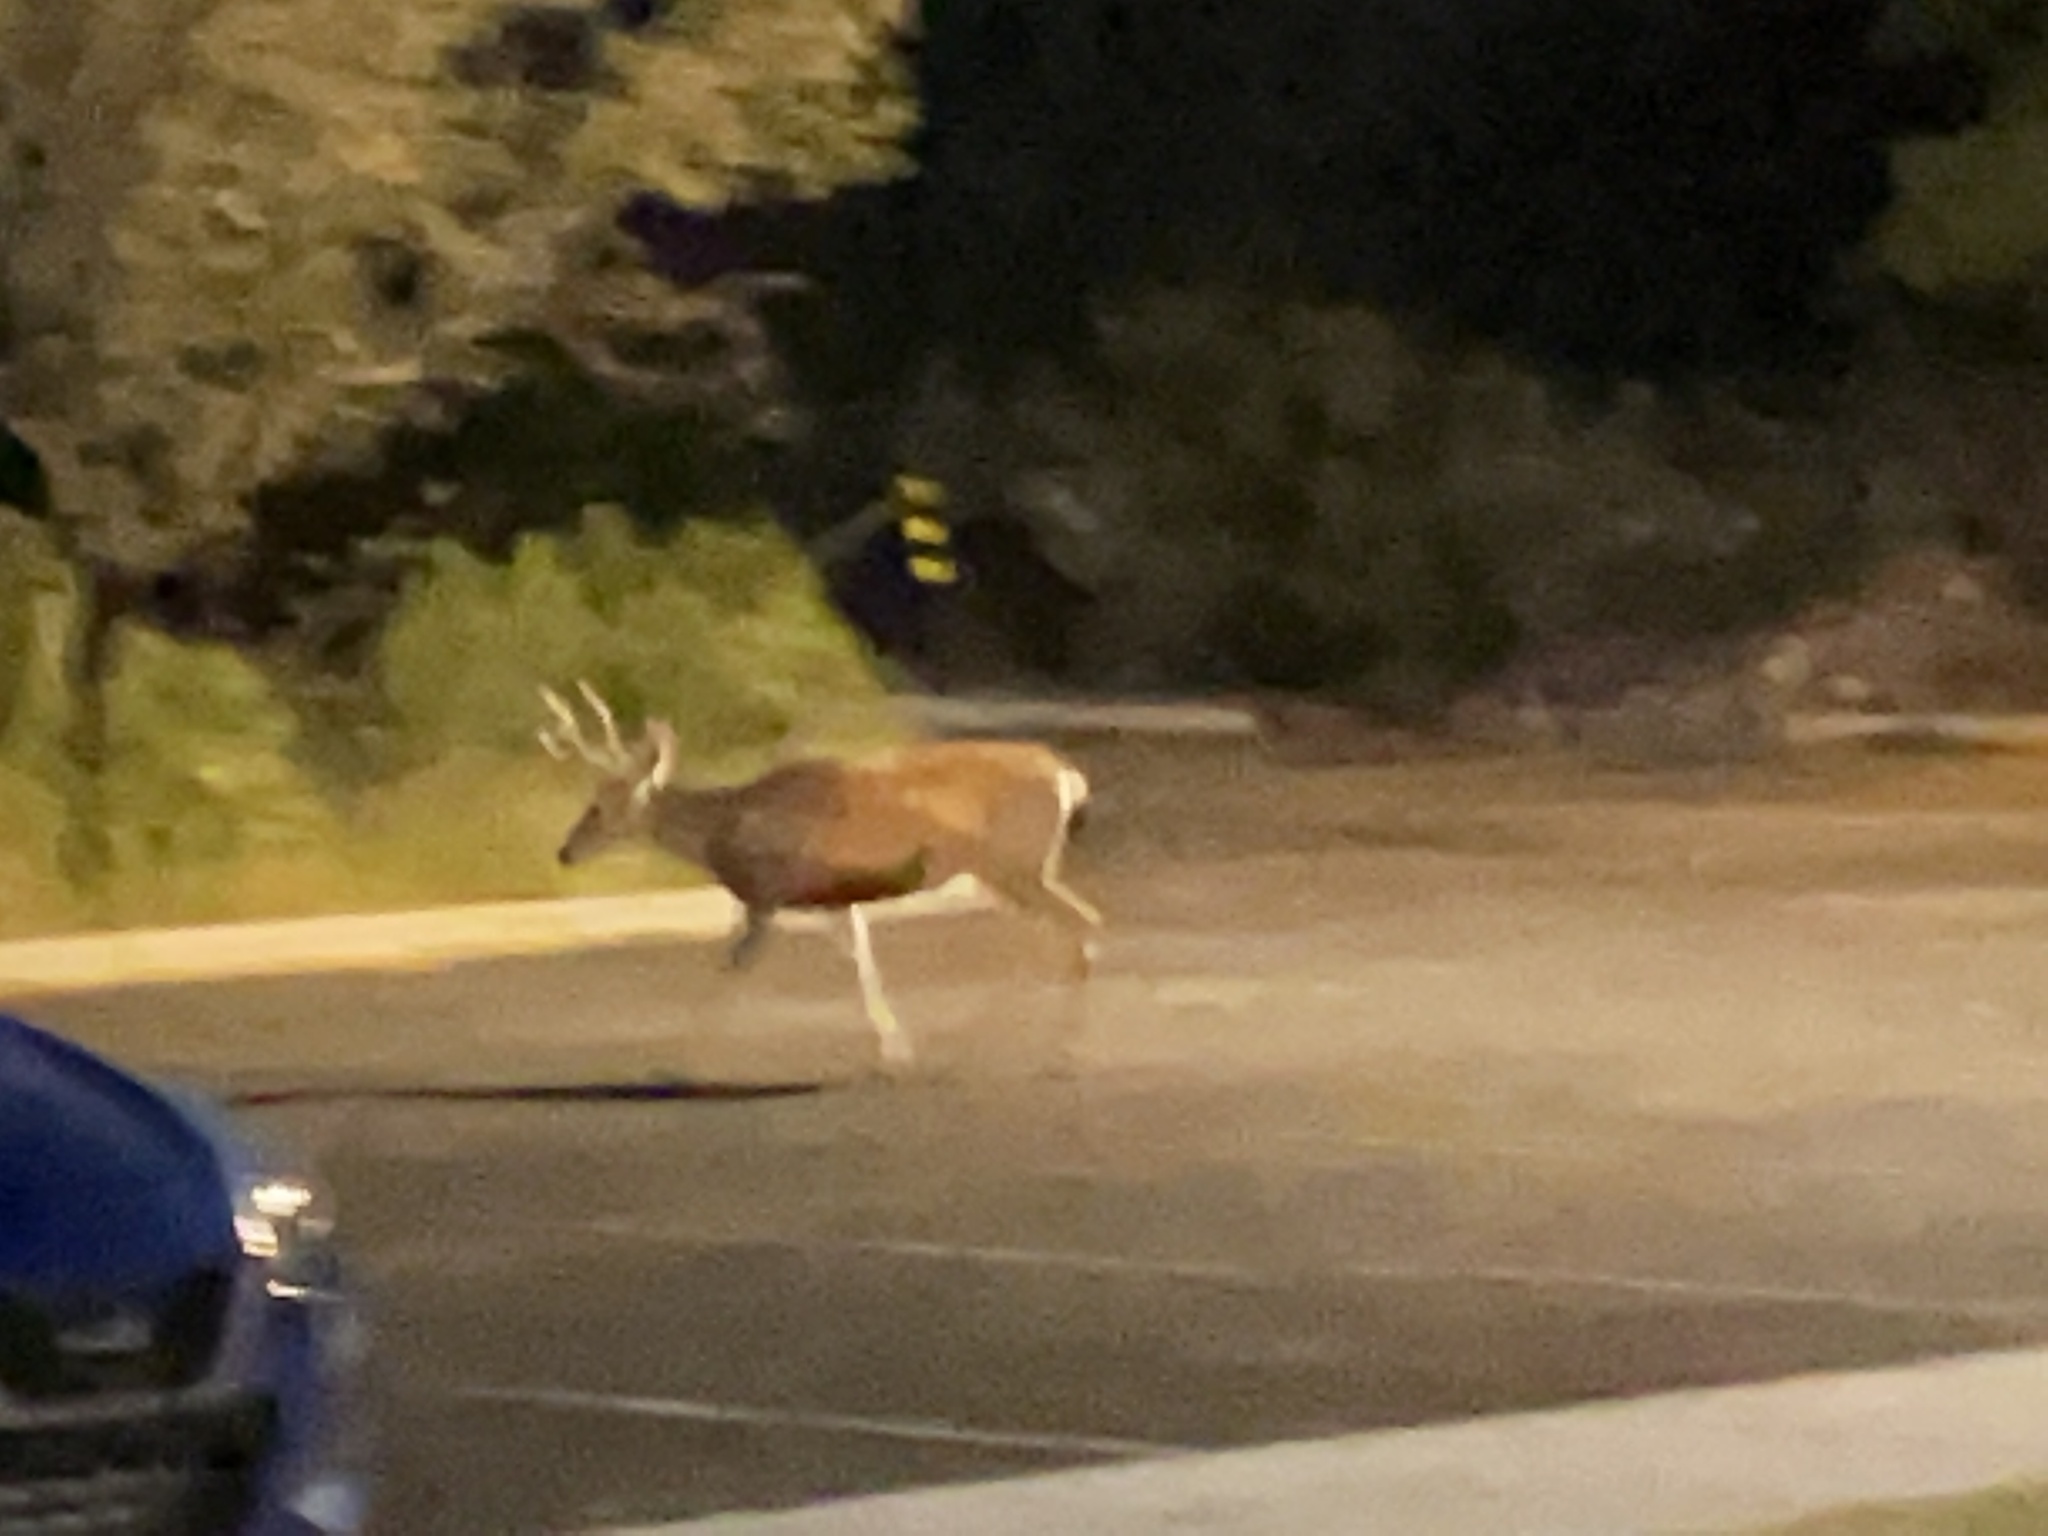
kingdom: Animalia
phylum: Chordata
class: Mammalia
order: Artiodactyla
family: Cervidae
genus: Odocoileus
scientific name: Odocoileus hemionus
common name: Mule deer
